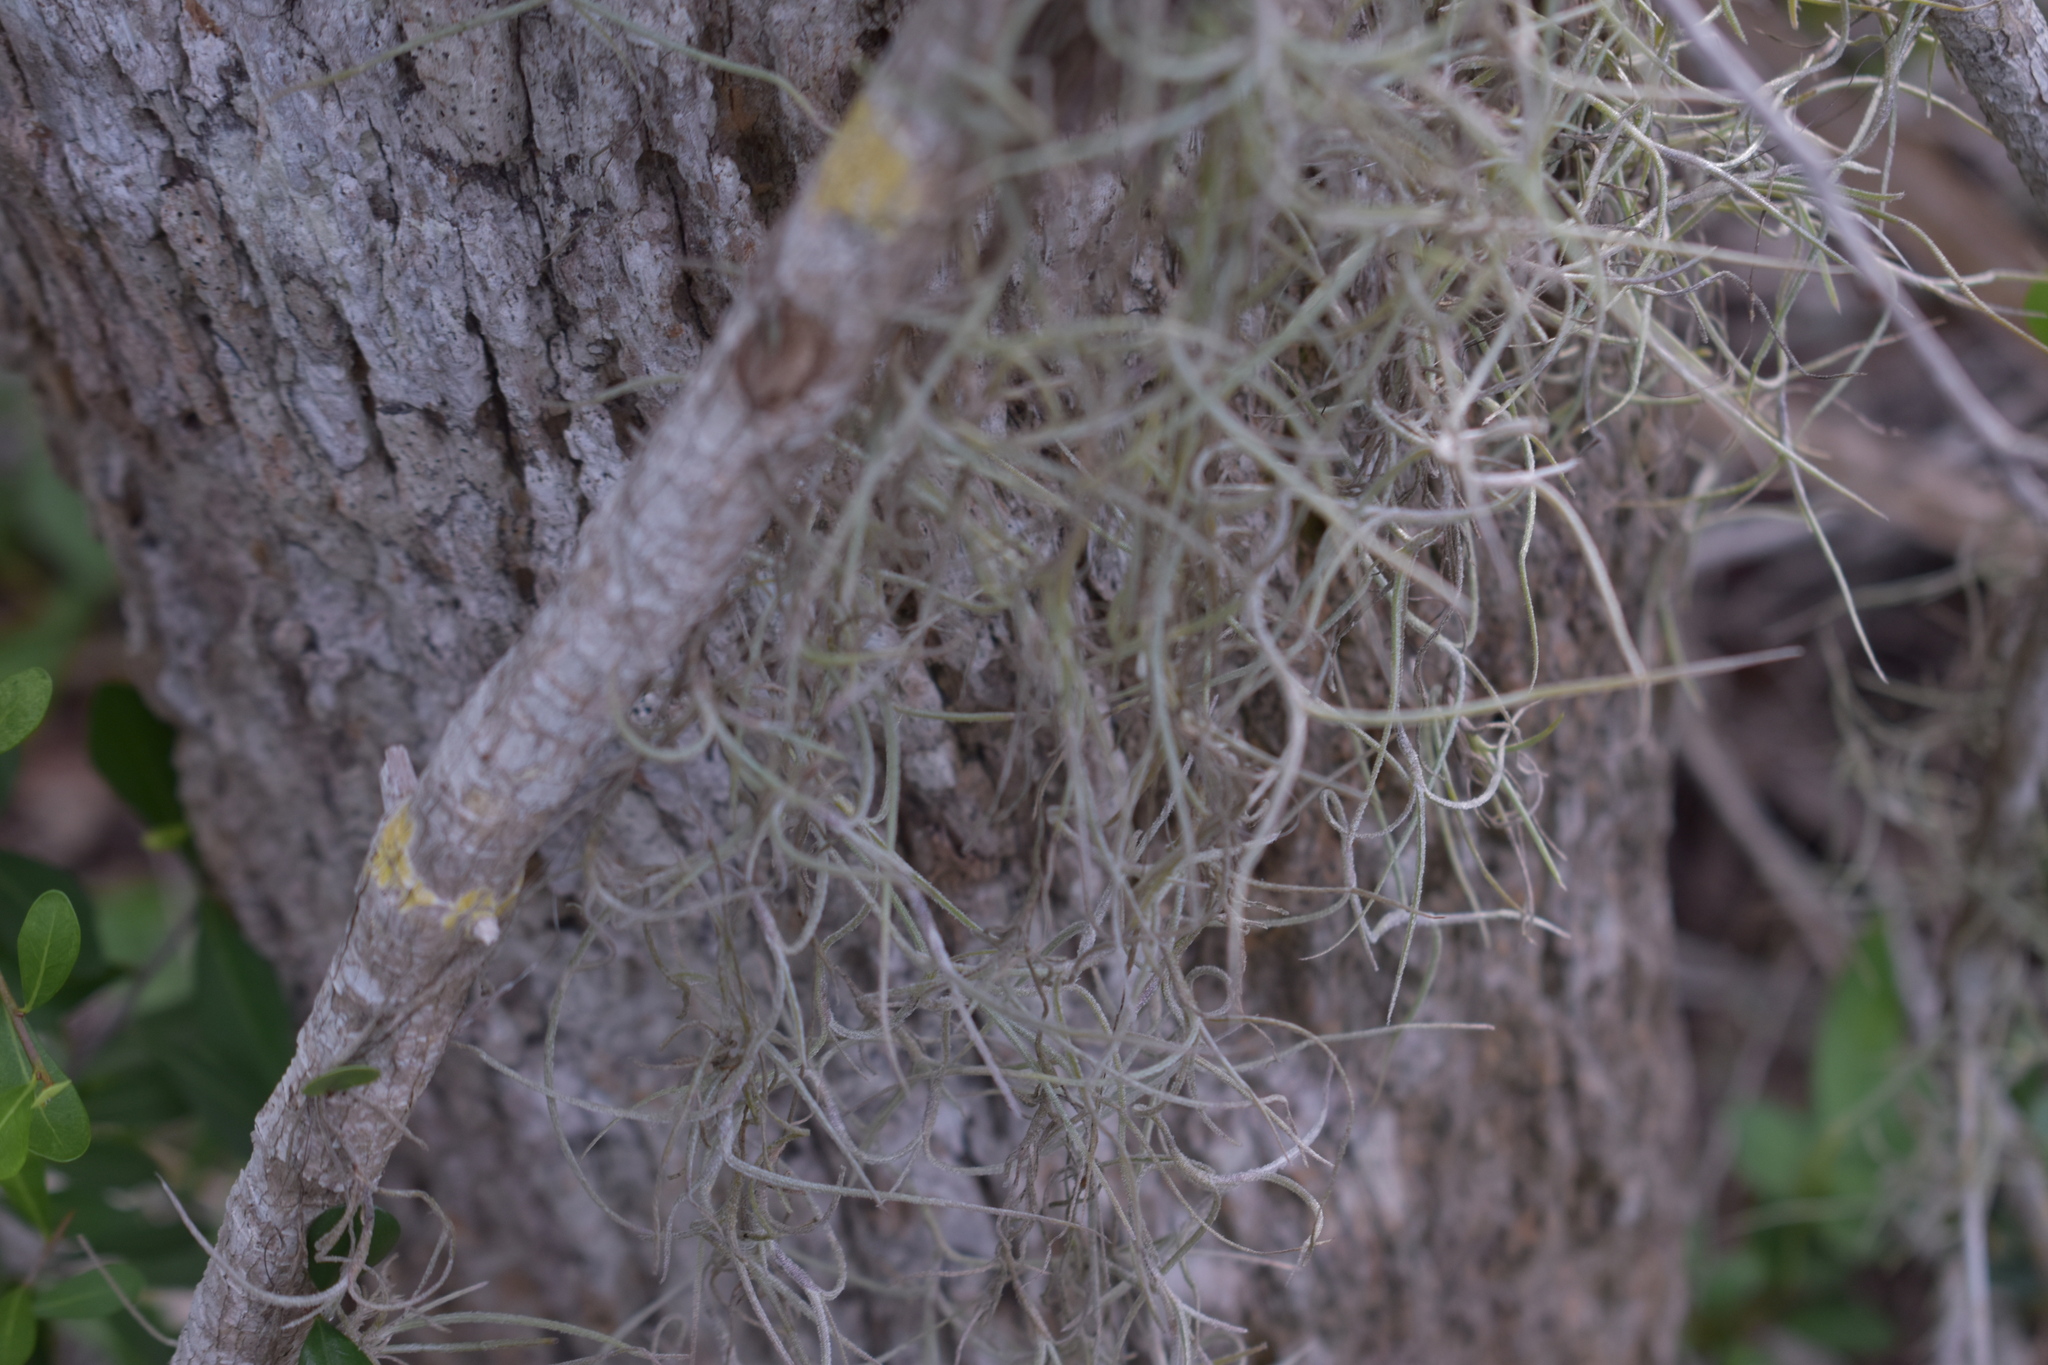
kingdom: Plantae
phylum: Tracheophyta
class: Liliopsida
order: Poales
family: Bromeliaceae
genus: Tillandsia
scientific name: Tillandsia usneoides
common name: Spanish moss
